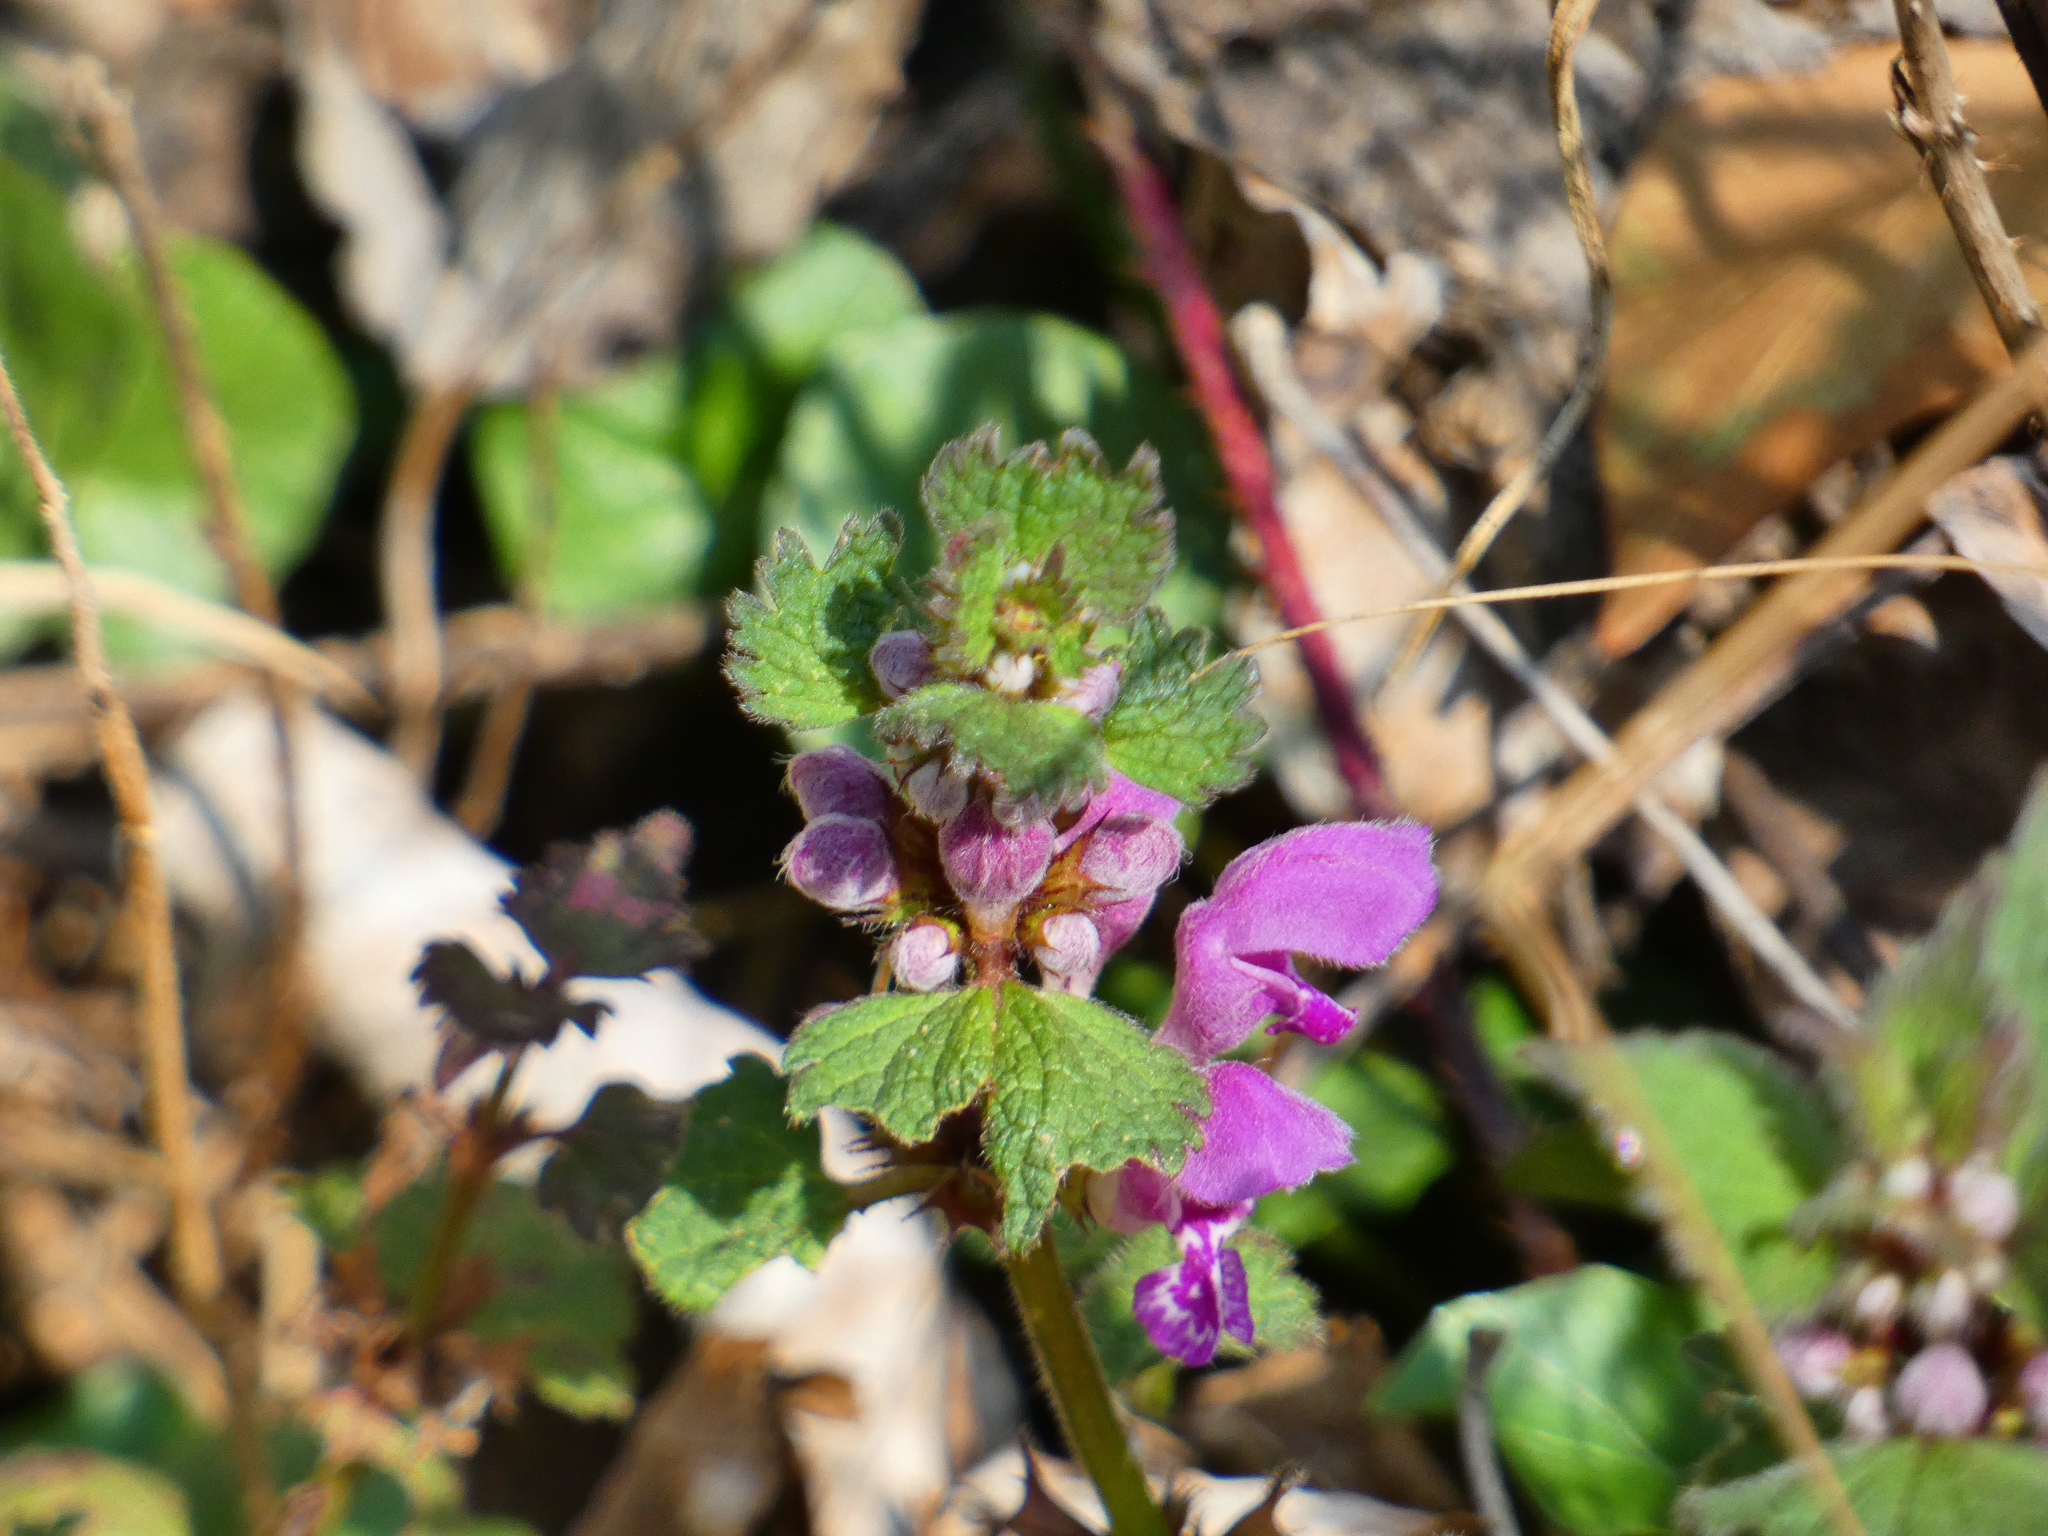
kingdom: Plantae
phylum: Tracheophyta
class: Magnoliopsida
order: Lamiales
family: Lamiaceae
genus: Lamium
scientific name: Lamium maculatum
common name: Spotted dead-nettle
